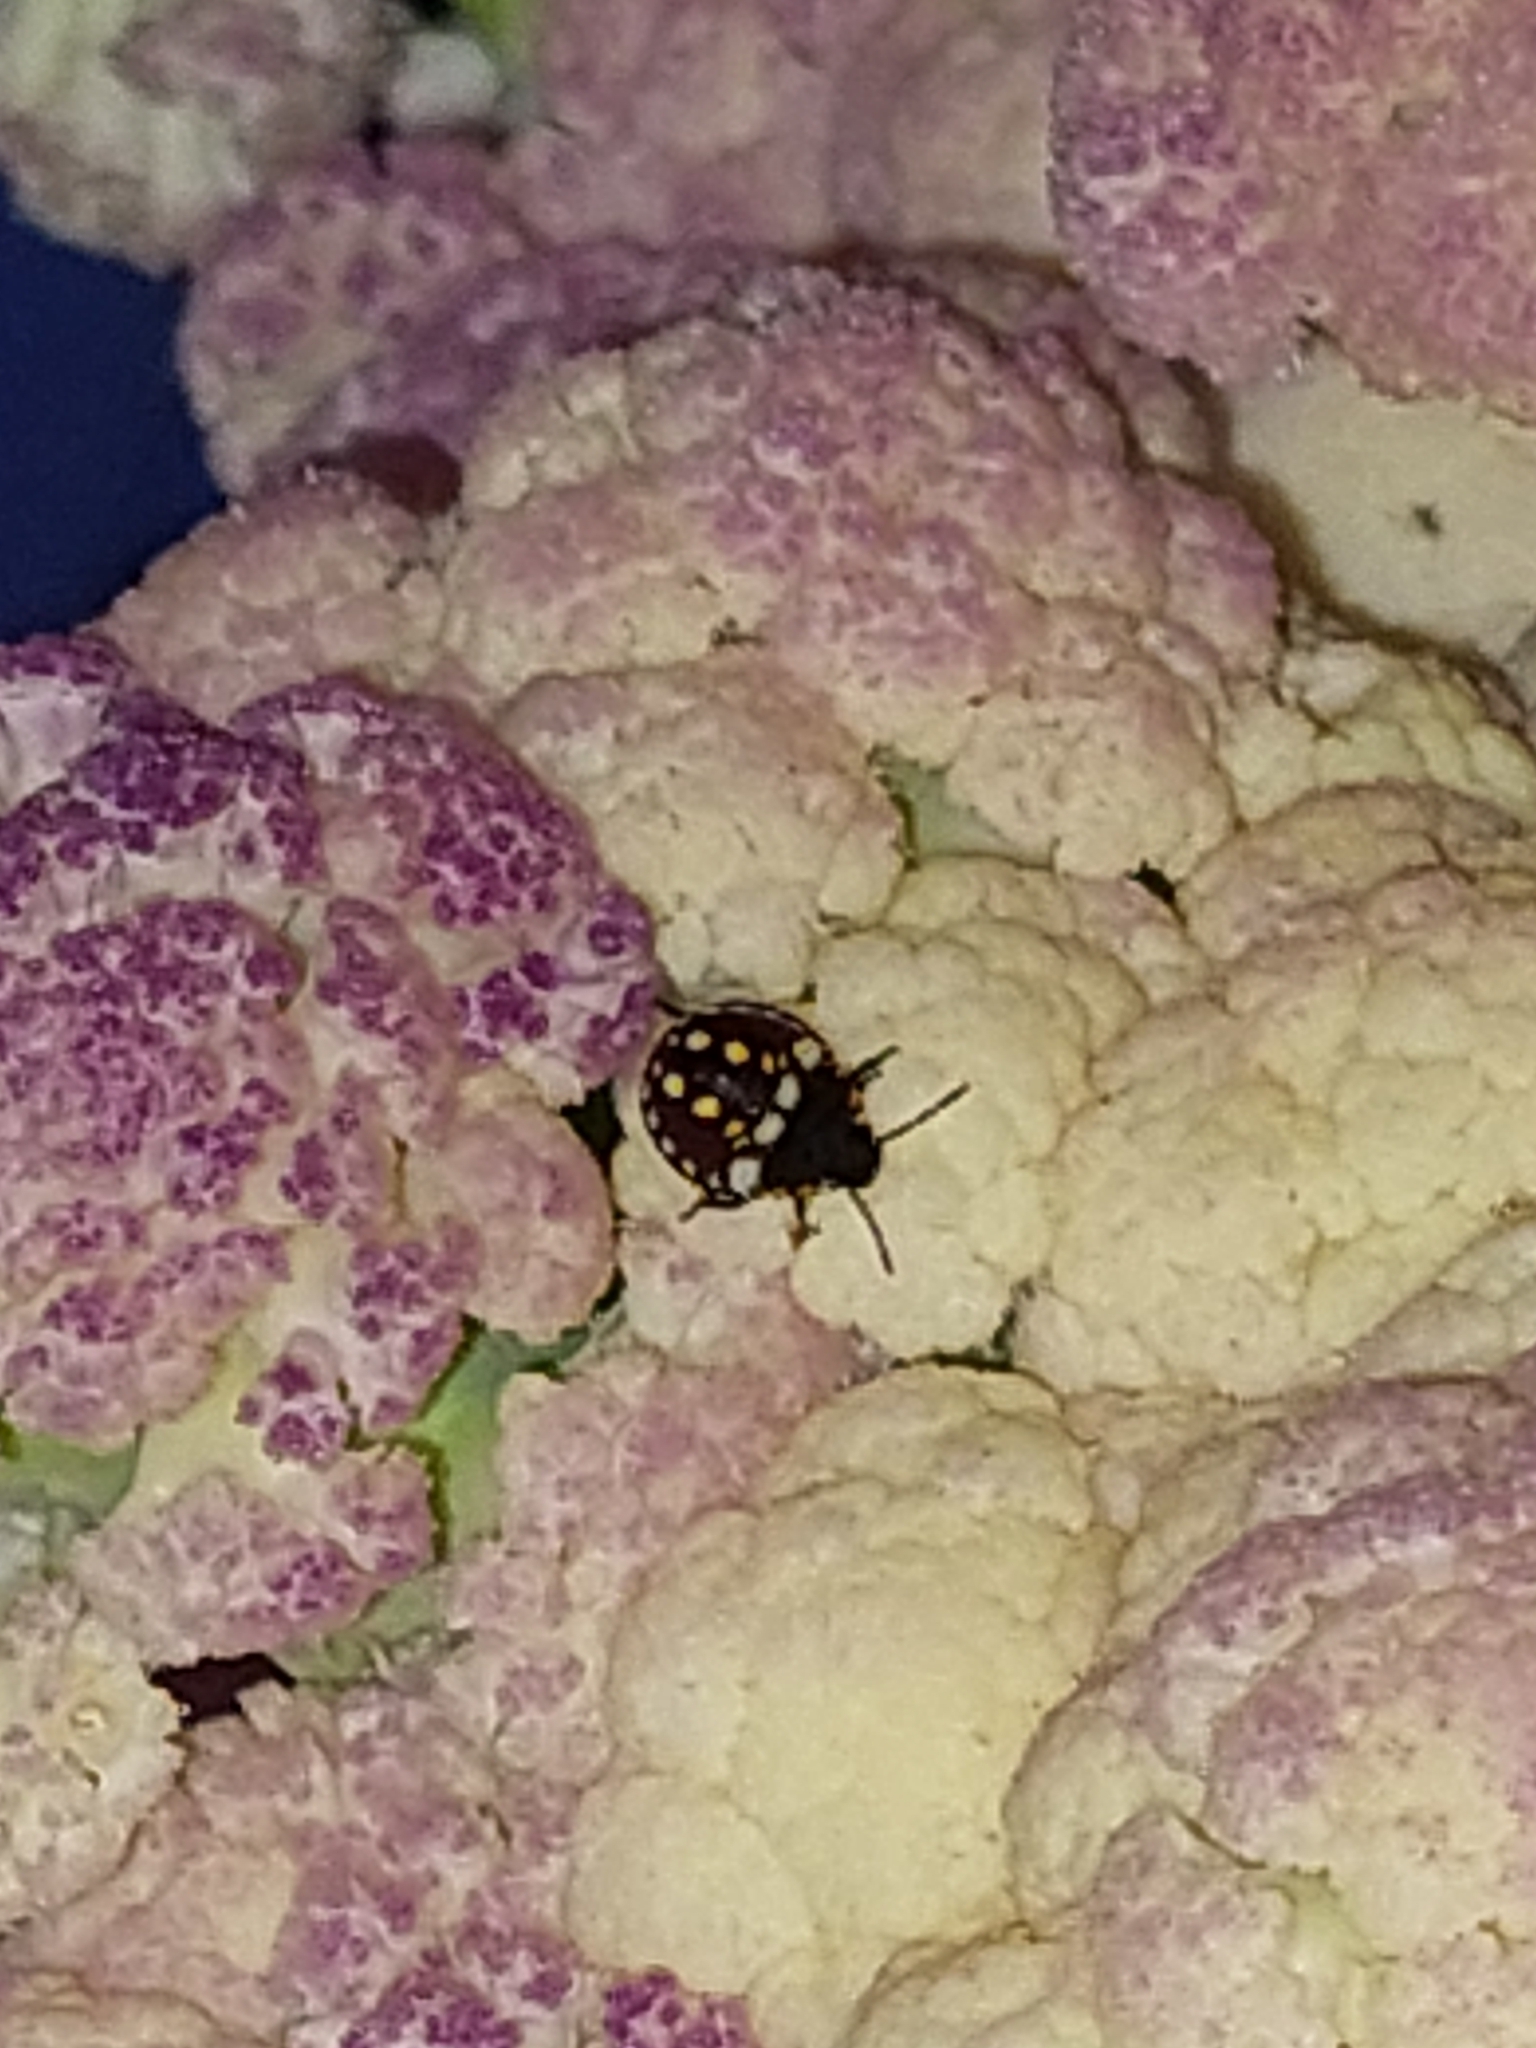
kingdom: Animalia
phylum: Arthropoda
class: Insecta
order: Hemiptera
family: Pentatomidae
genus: Nezara
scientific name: Nezara viridula
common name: Southern green stink bug
